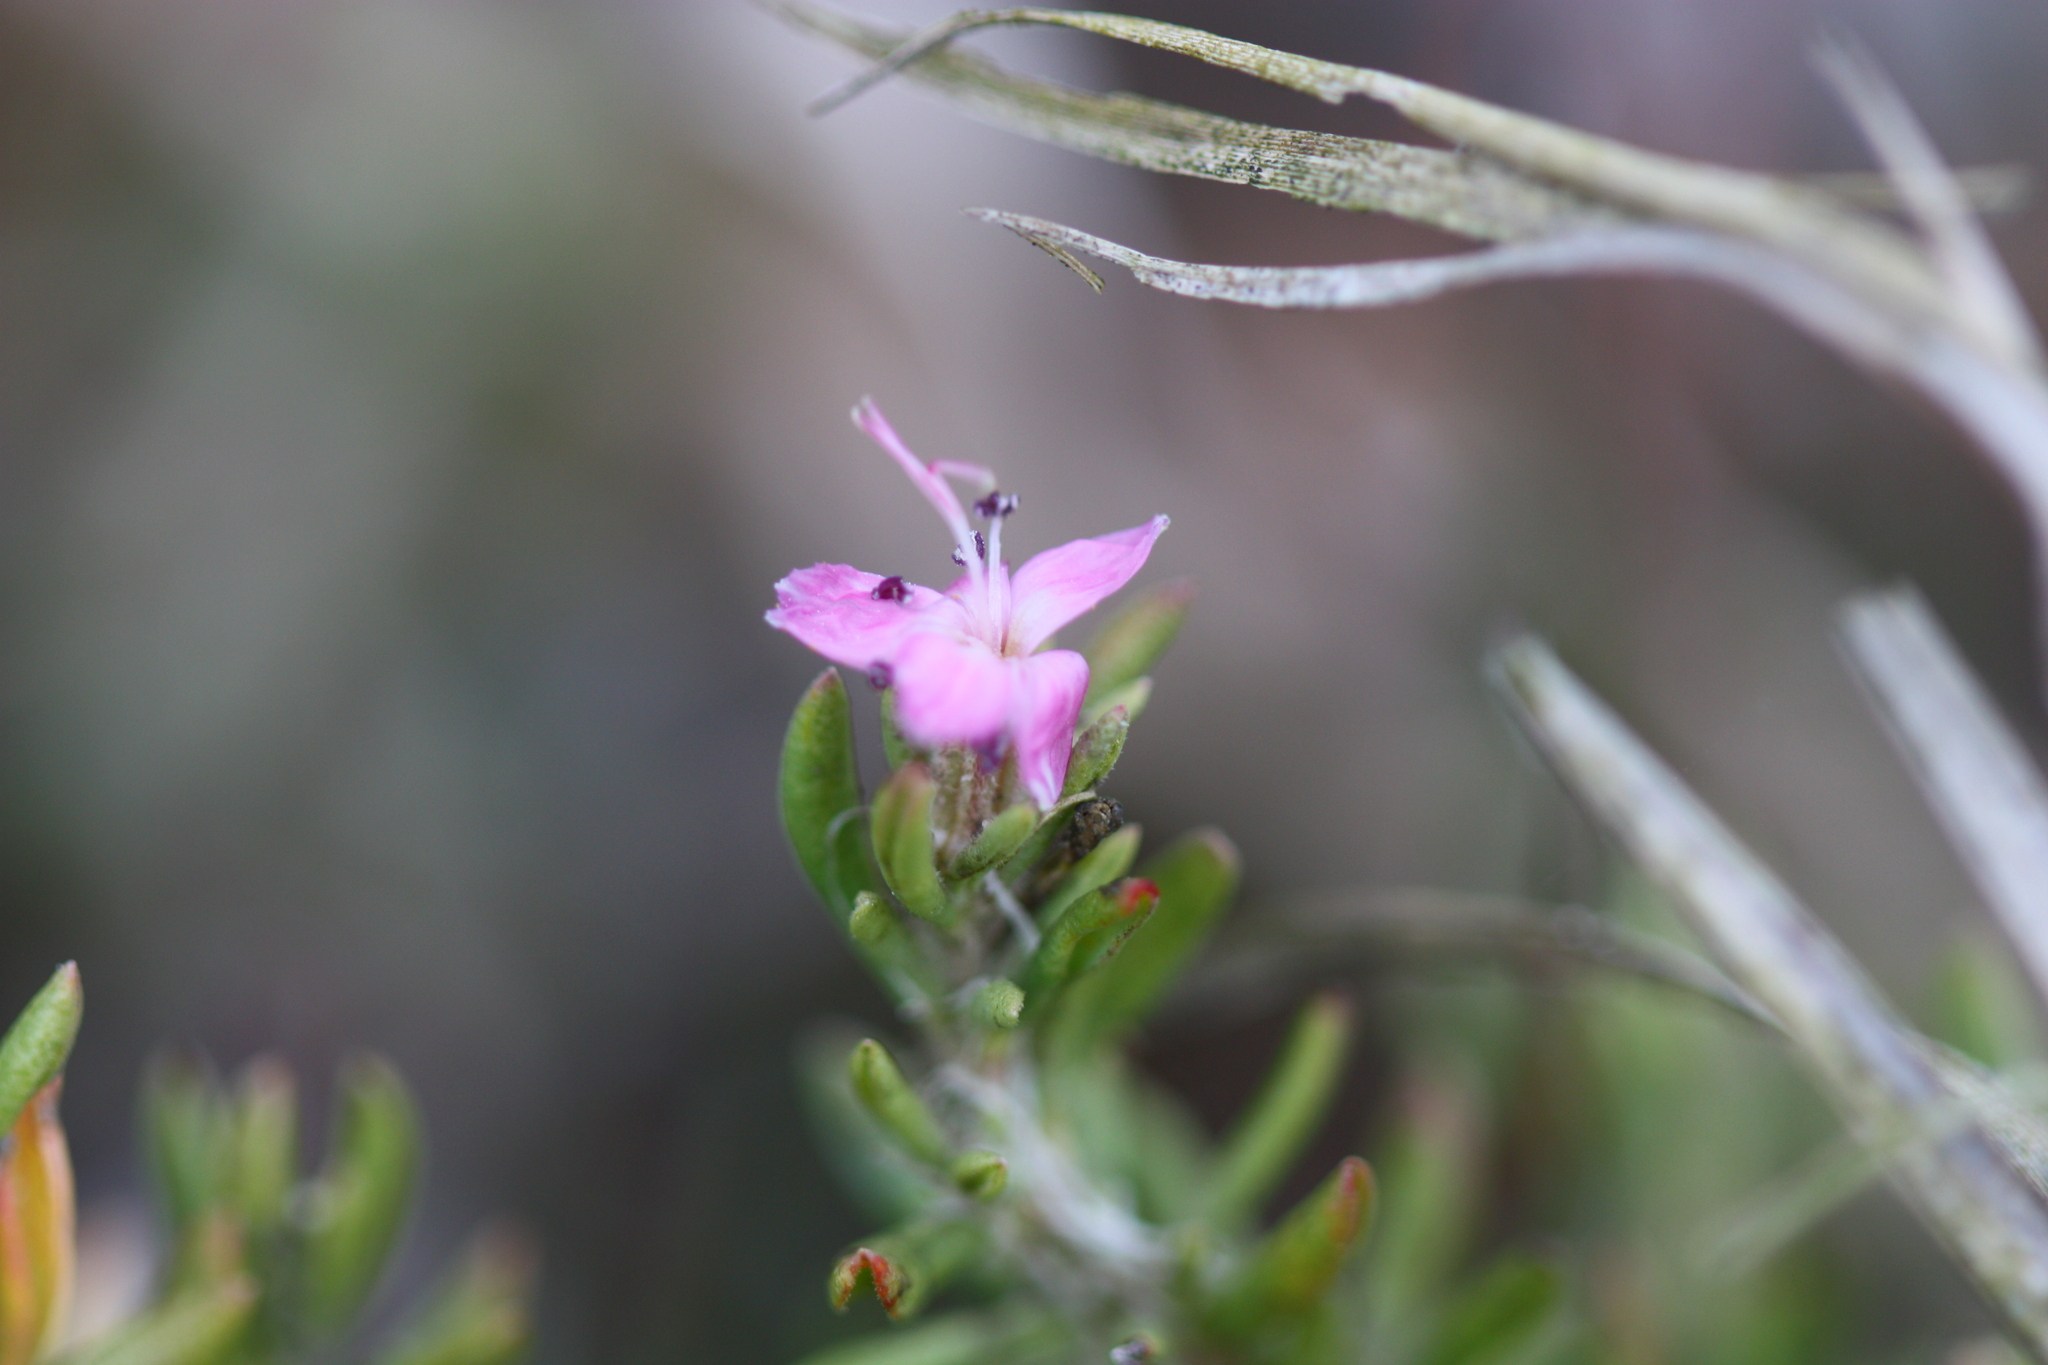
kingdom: Plantae
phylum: Tracheophyta
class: Magnoliopsida
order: Caryophyllales
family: Frankeniaceae
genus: Frankenia
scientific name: Frankenia salina
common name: Alkali seaheath
